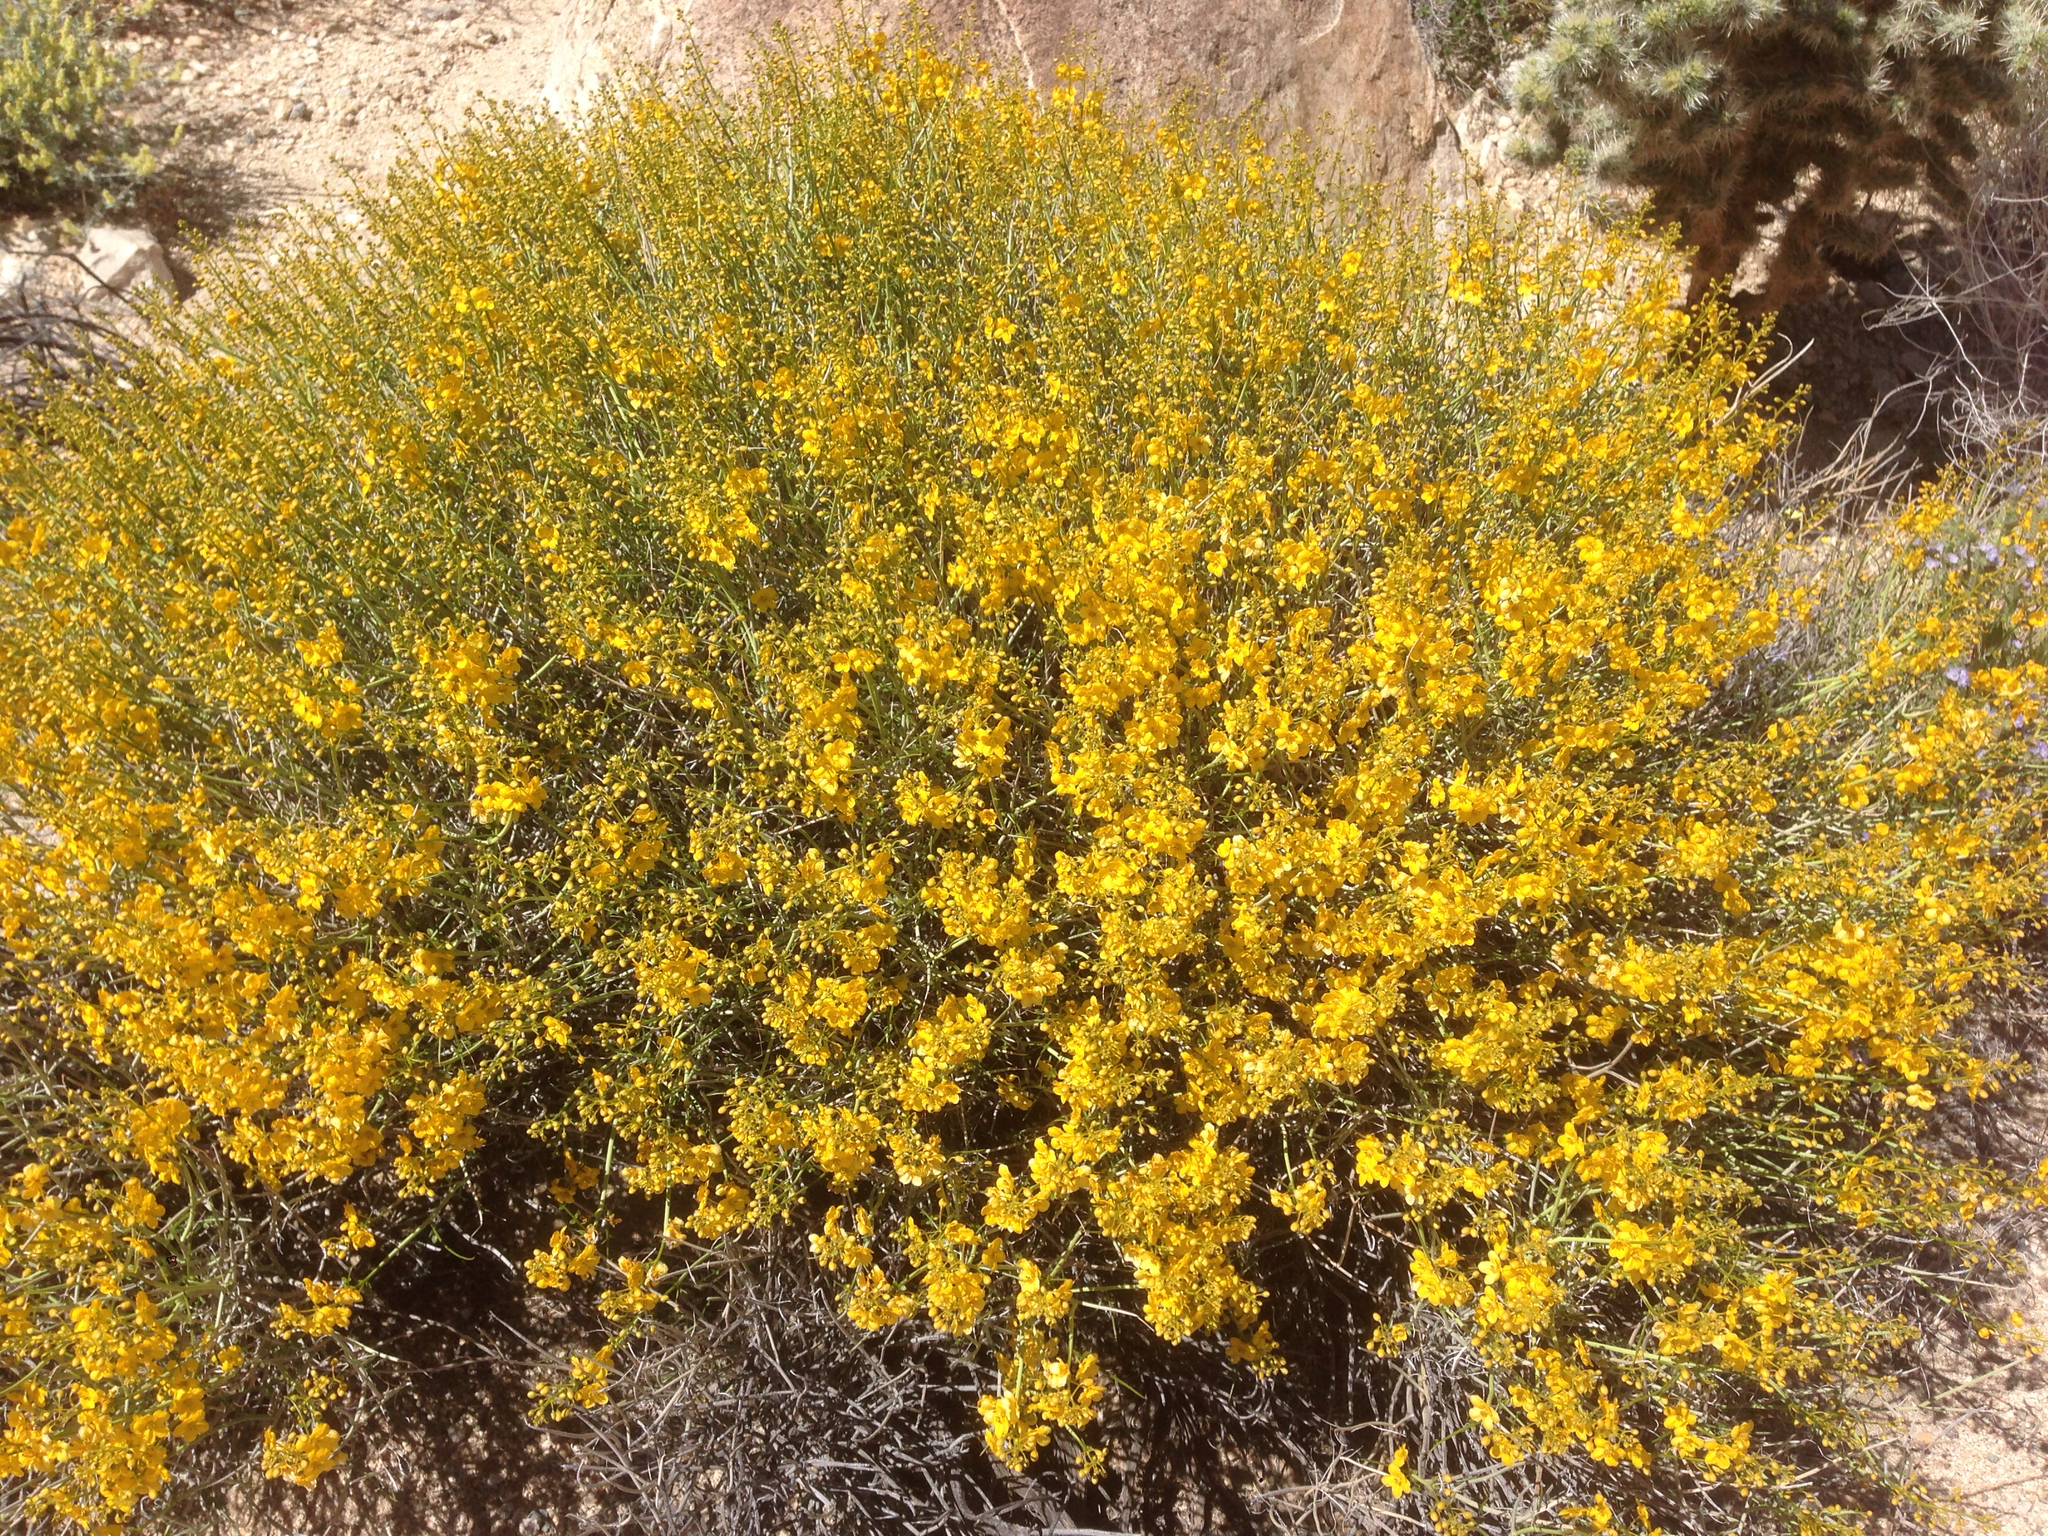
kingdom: Plantae
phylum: Tracheophyta
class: Magnoliopsida
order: Fabales
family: Fabaceae
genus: Senna
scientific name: Senna armata
